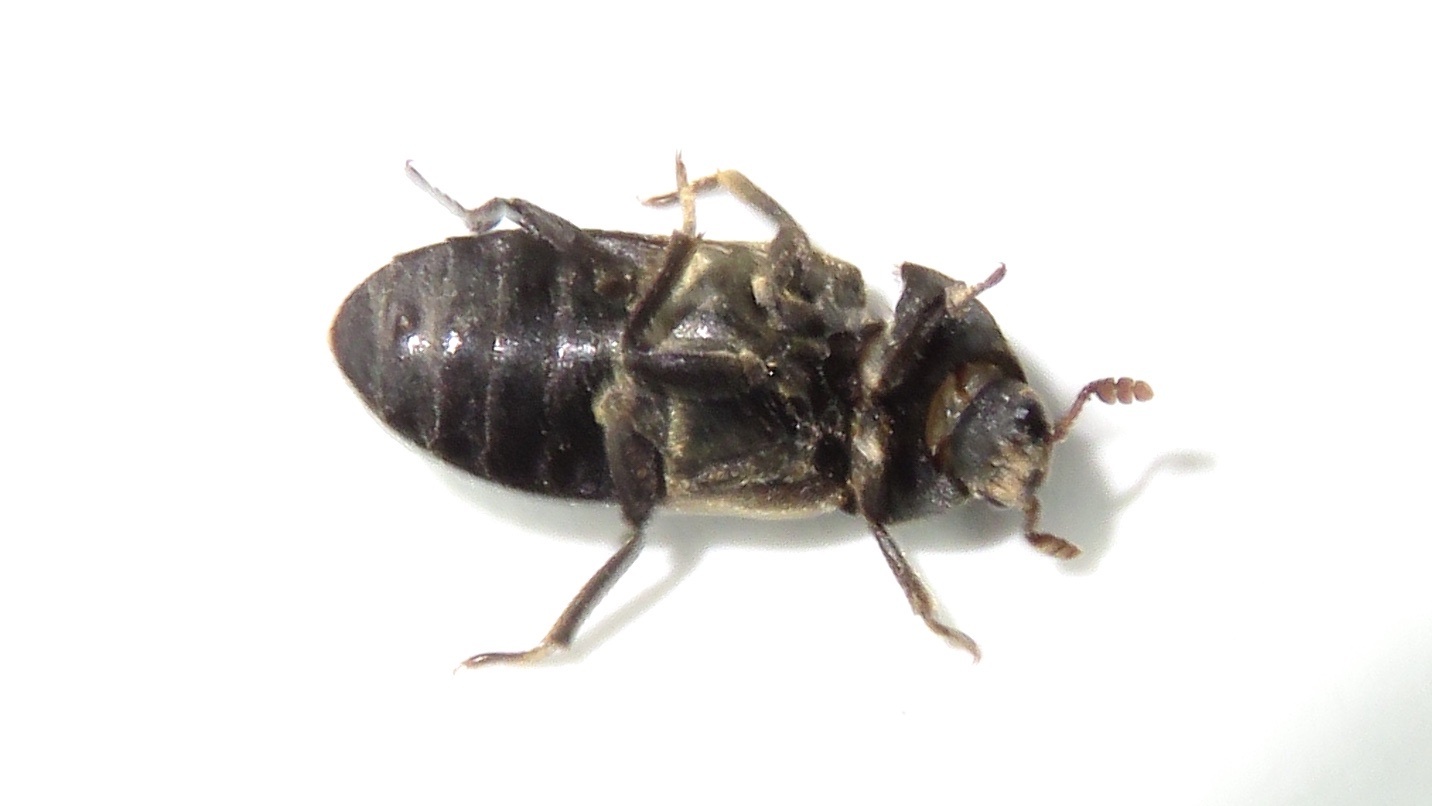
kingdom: Animalia
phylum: Arthropoda
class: Insecta
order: Coleoptera
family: Dermestidae
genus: Dermestes
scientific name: Dermestes lardarius
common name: Larder beetle
